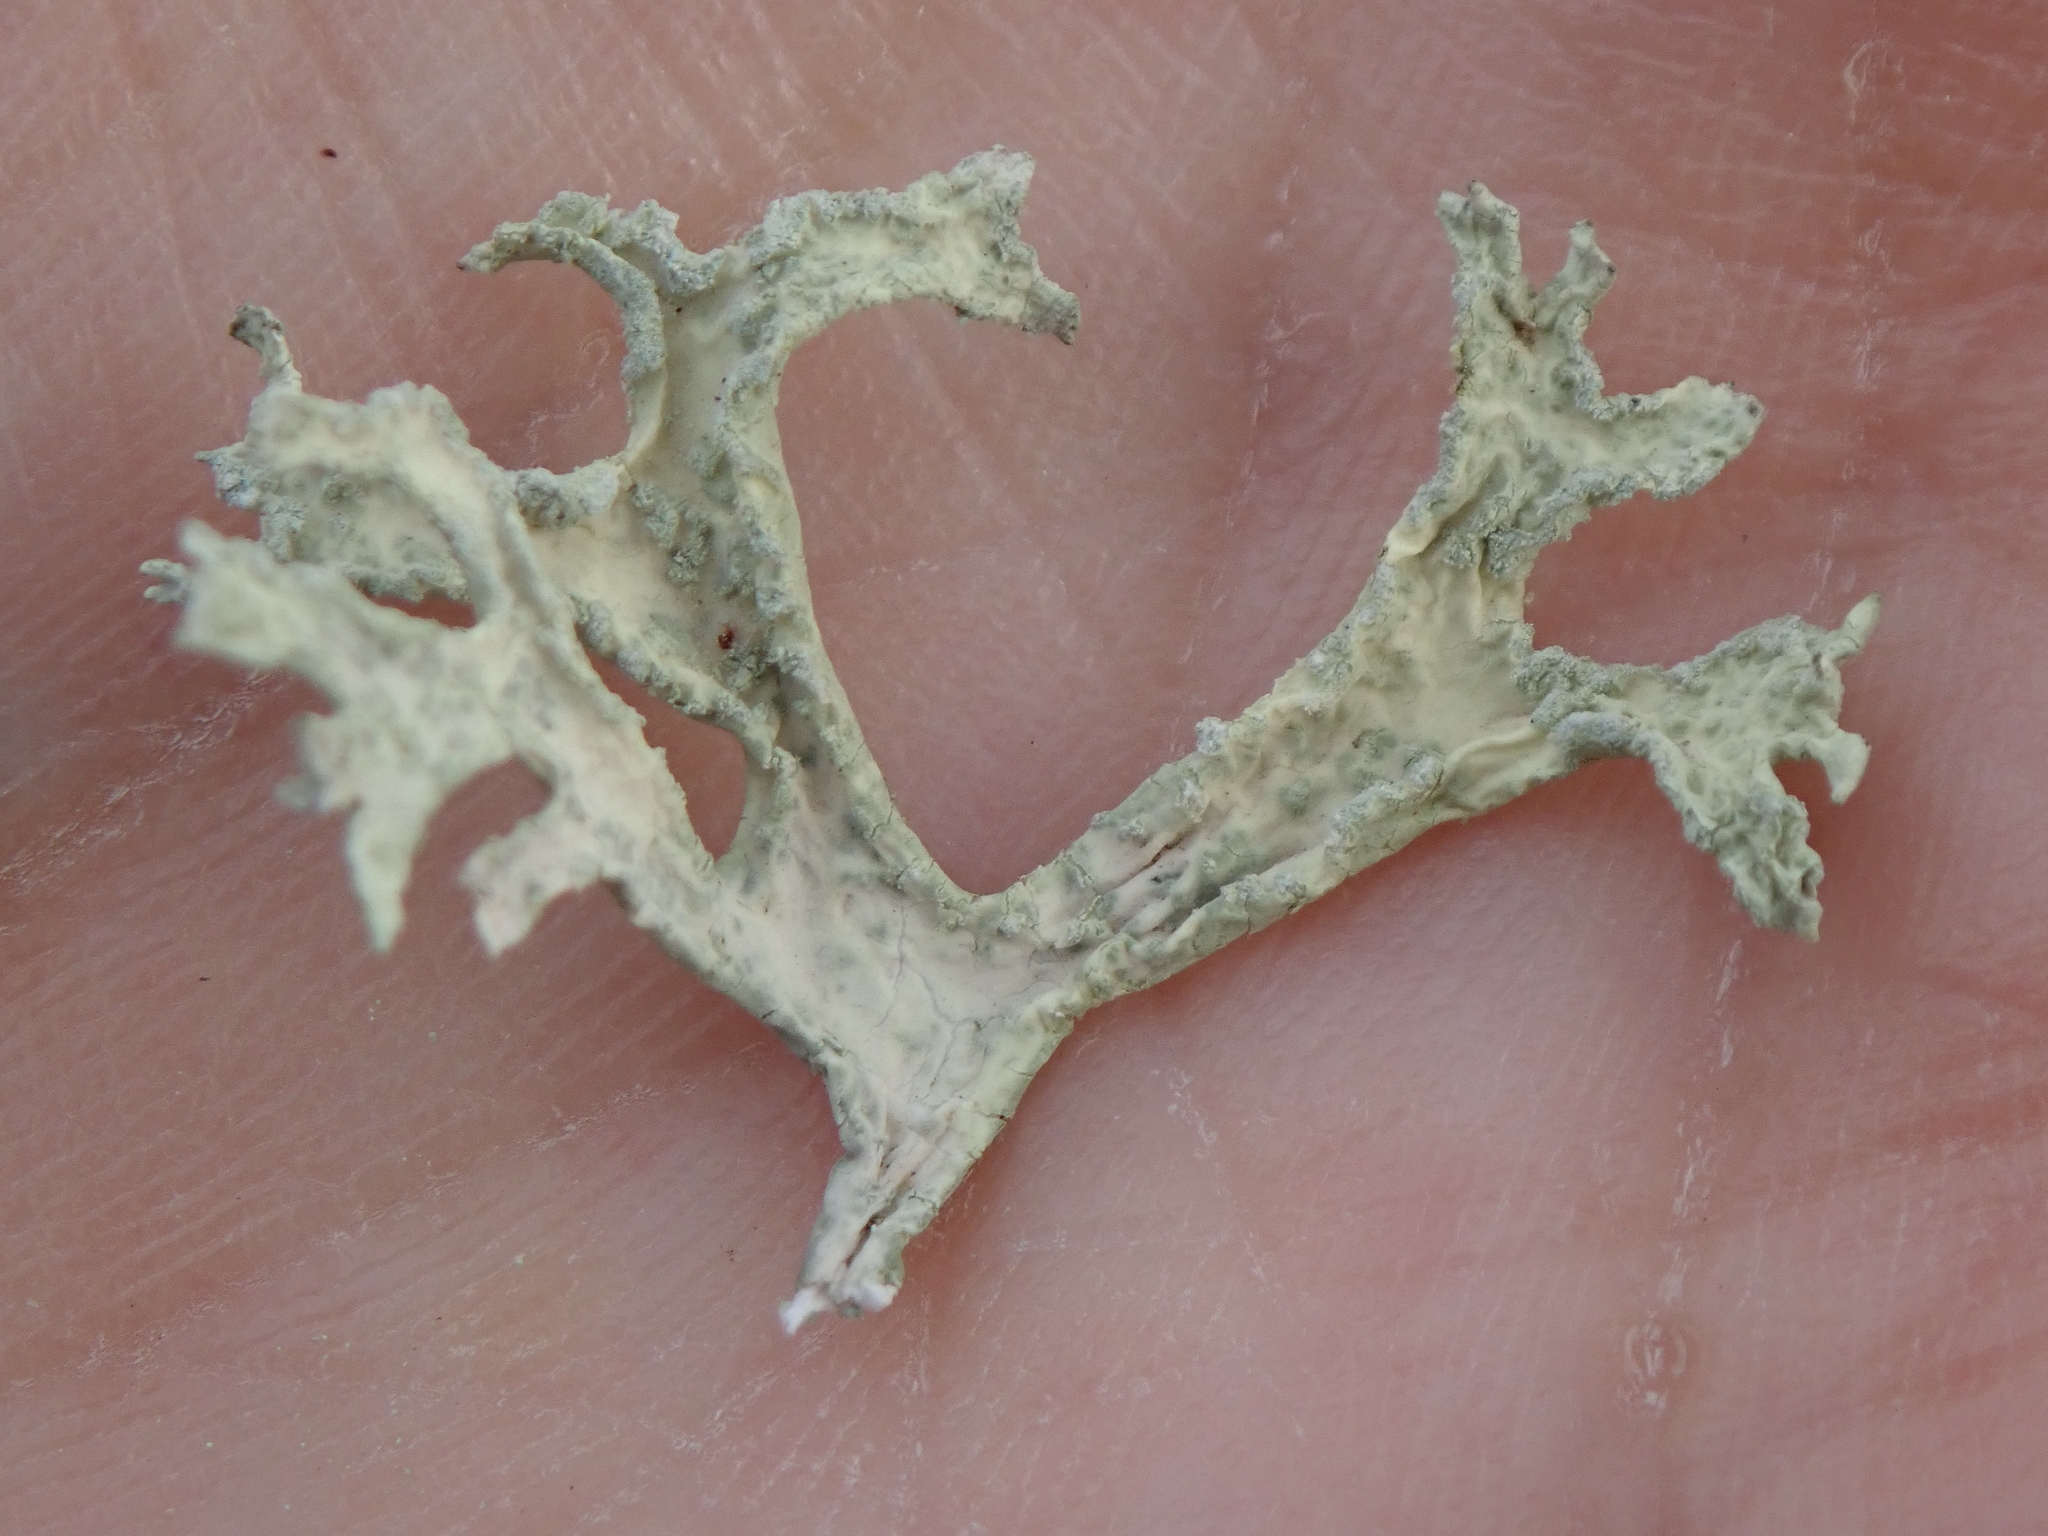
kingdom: Fungi
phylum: Ascomycota
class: Lecanoromycetes
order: Lecanorales
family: Parmeliaceae
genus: Evernia
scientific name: Evernia prunastri
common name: Oak moss
